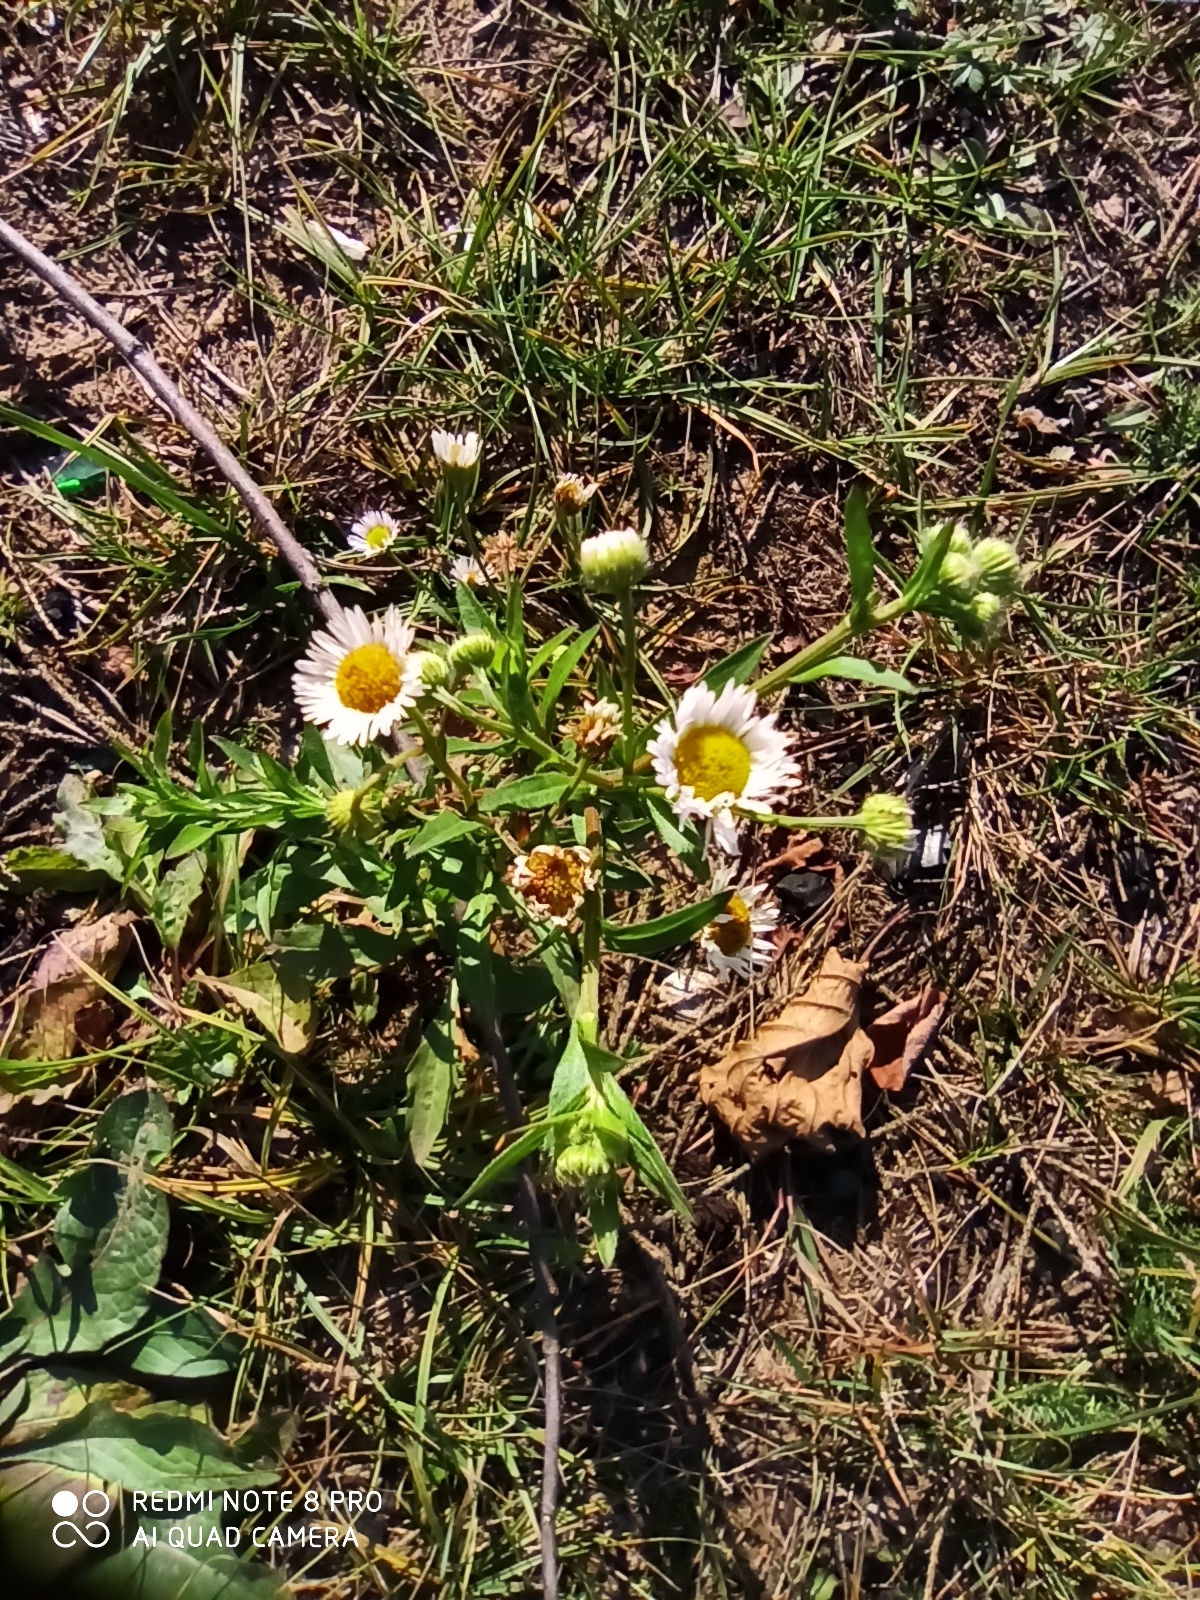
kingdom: Plantae
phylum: Tracheophyta
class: Magnoliopsida
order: Asterales
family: Asteraceae
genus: Erigeron
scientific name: Erigeron strigosus
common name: Common eastern fleabane
